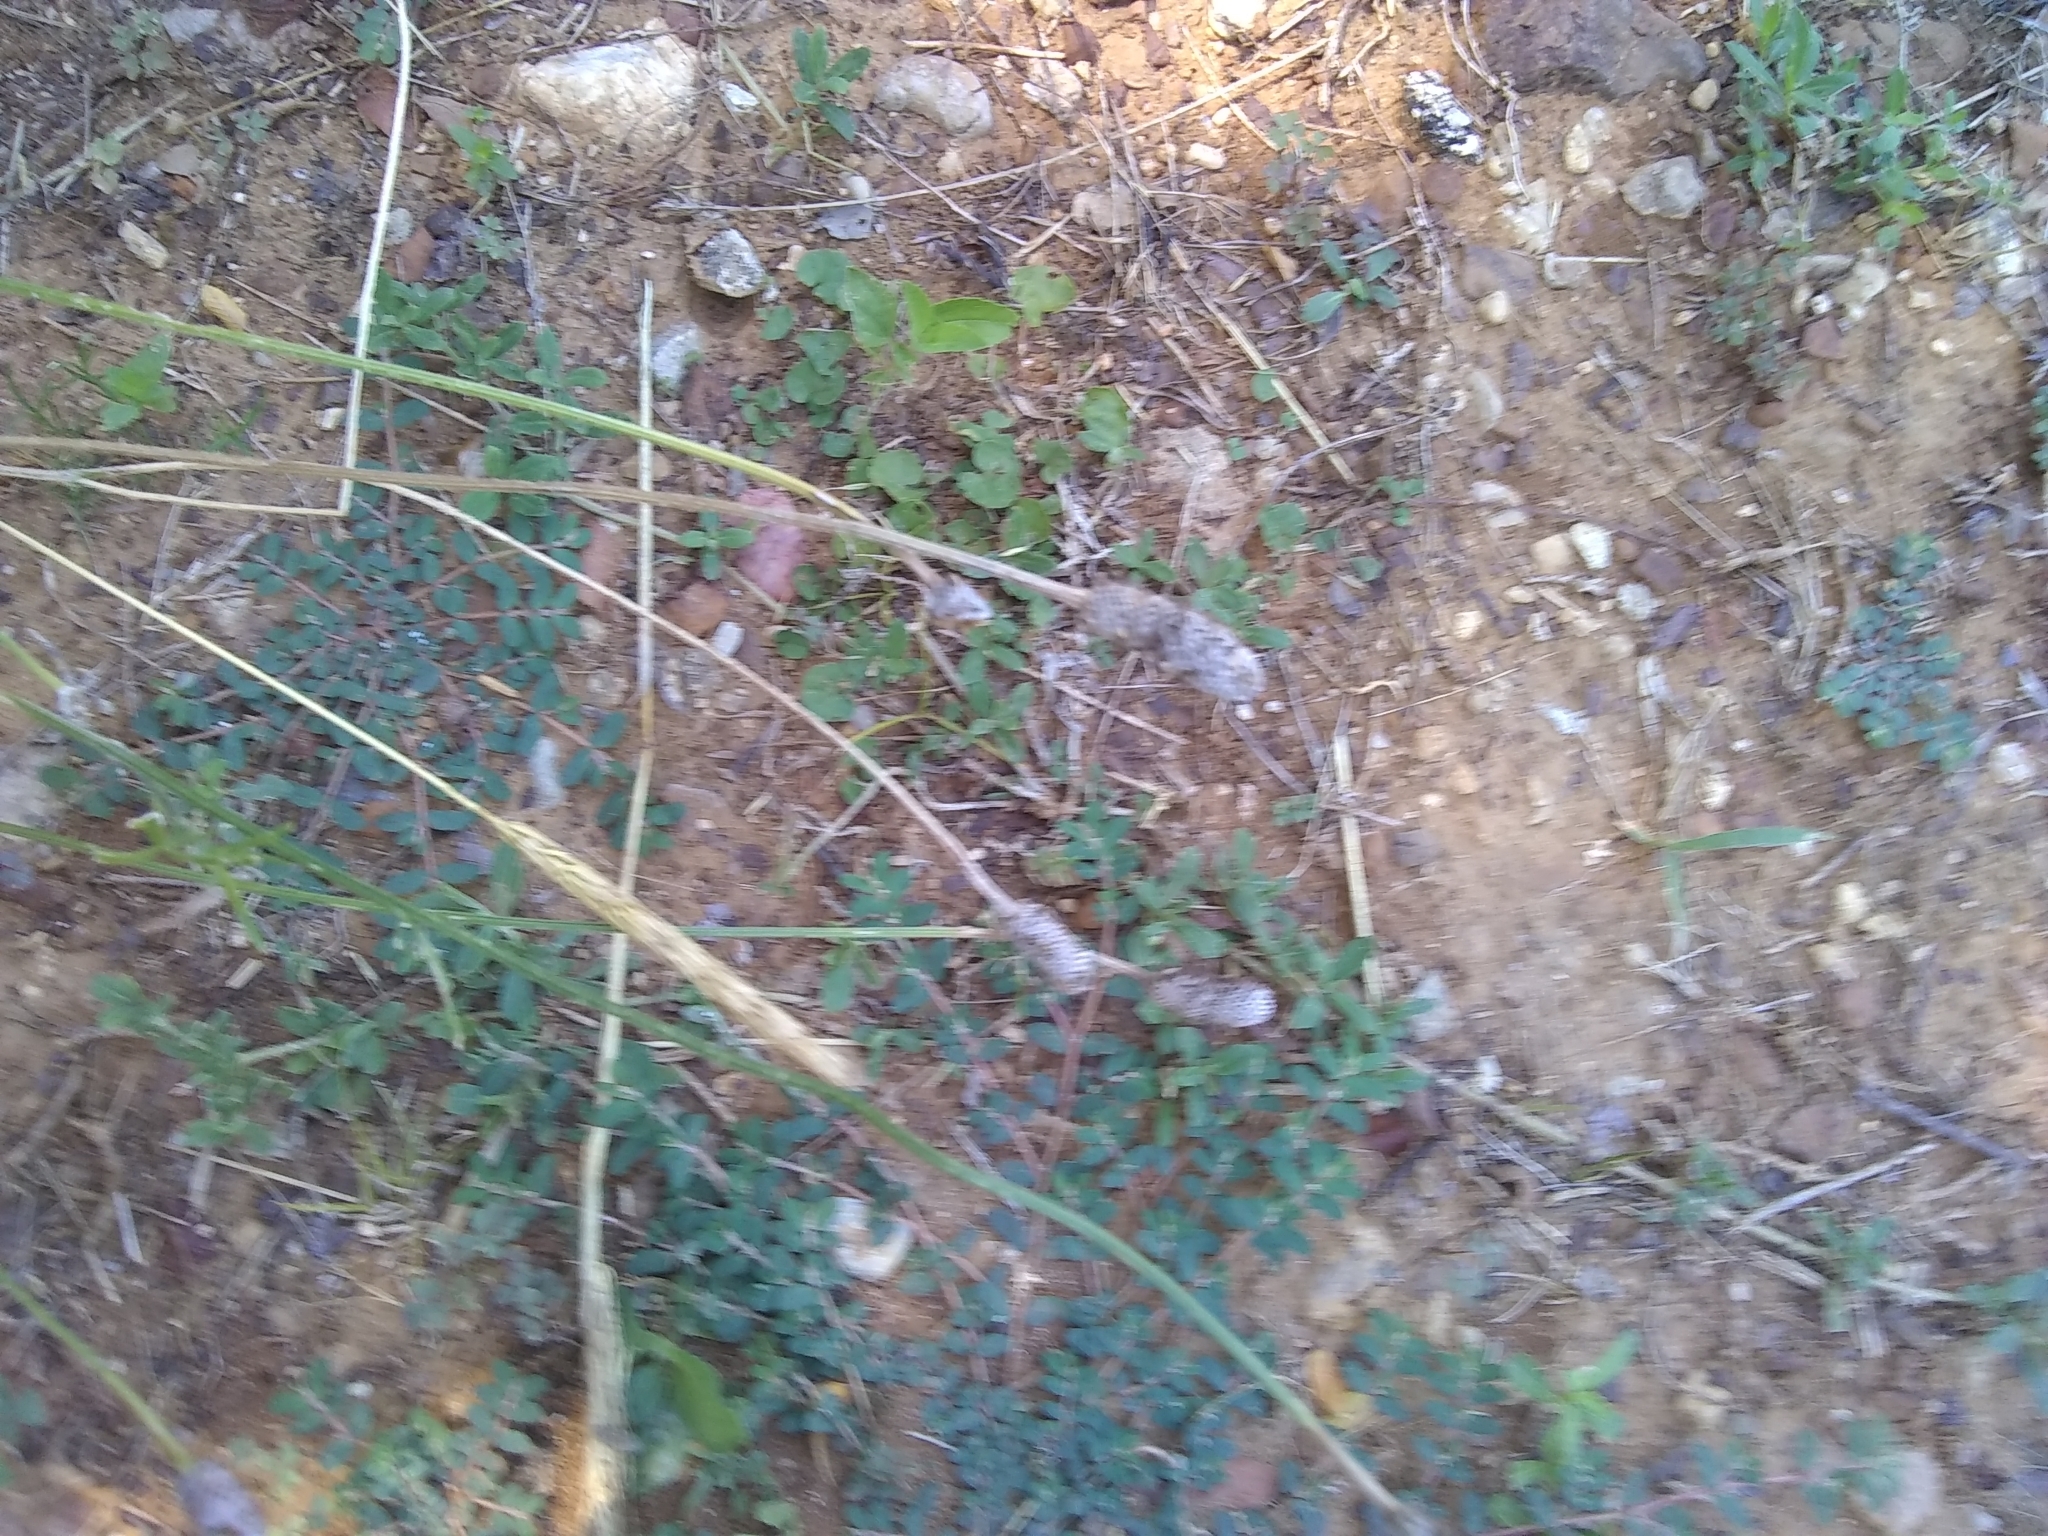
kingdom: Plantae
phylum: Tracheophyta
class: Magnoliopsida
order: Asterales
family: Asteraceae
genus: Ratibida
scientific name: Ratibida columnifera
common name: Prairie coneflower
